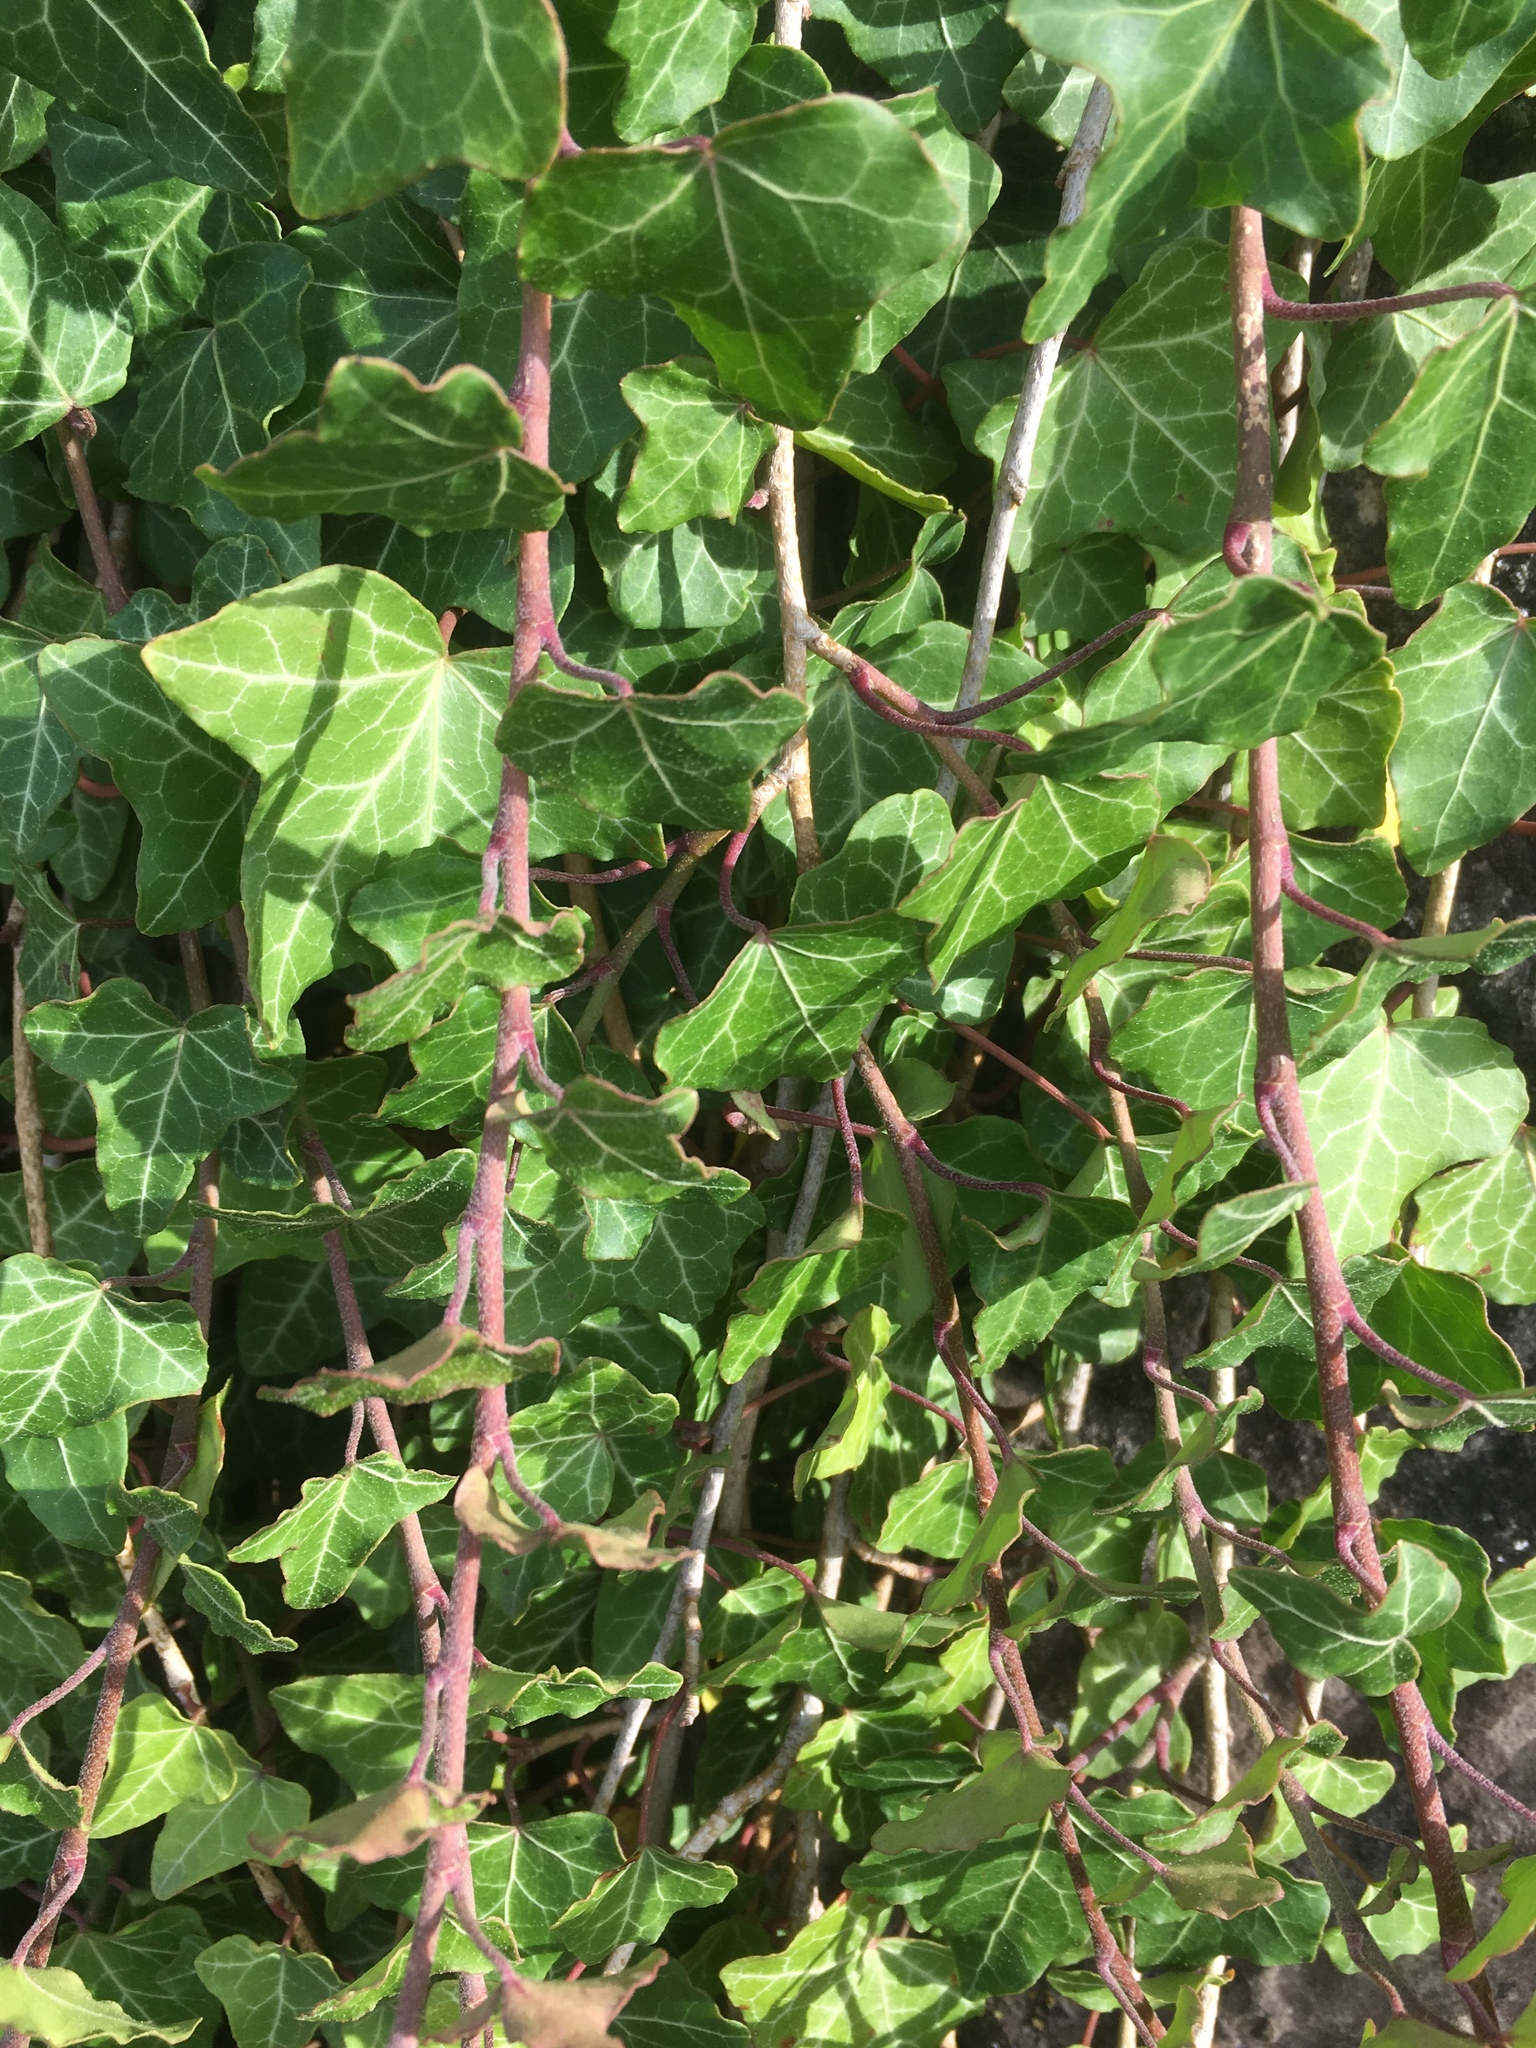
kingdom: Plantae
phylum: Tracheophyta
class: Magnoliopsida
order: Apiales
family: Araliaceae
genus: Hedera
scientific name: Hedera helix
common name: Ivy
